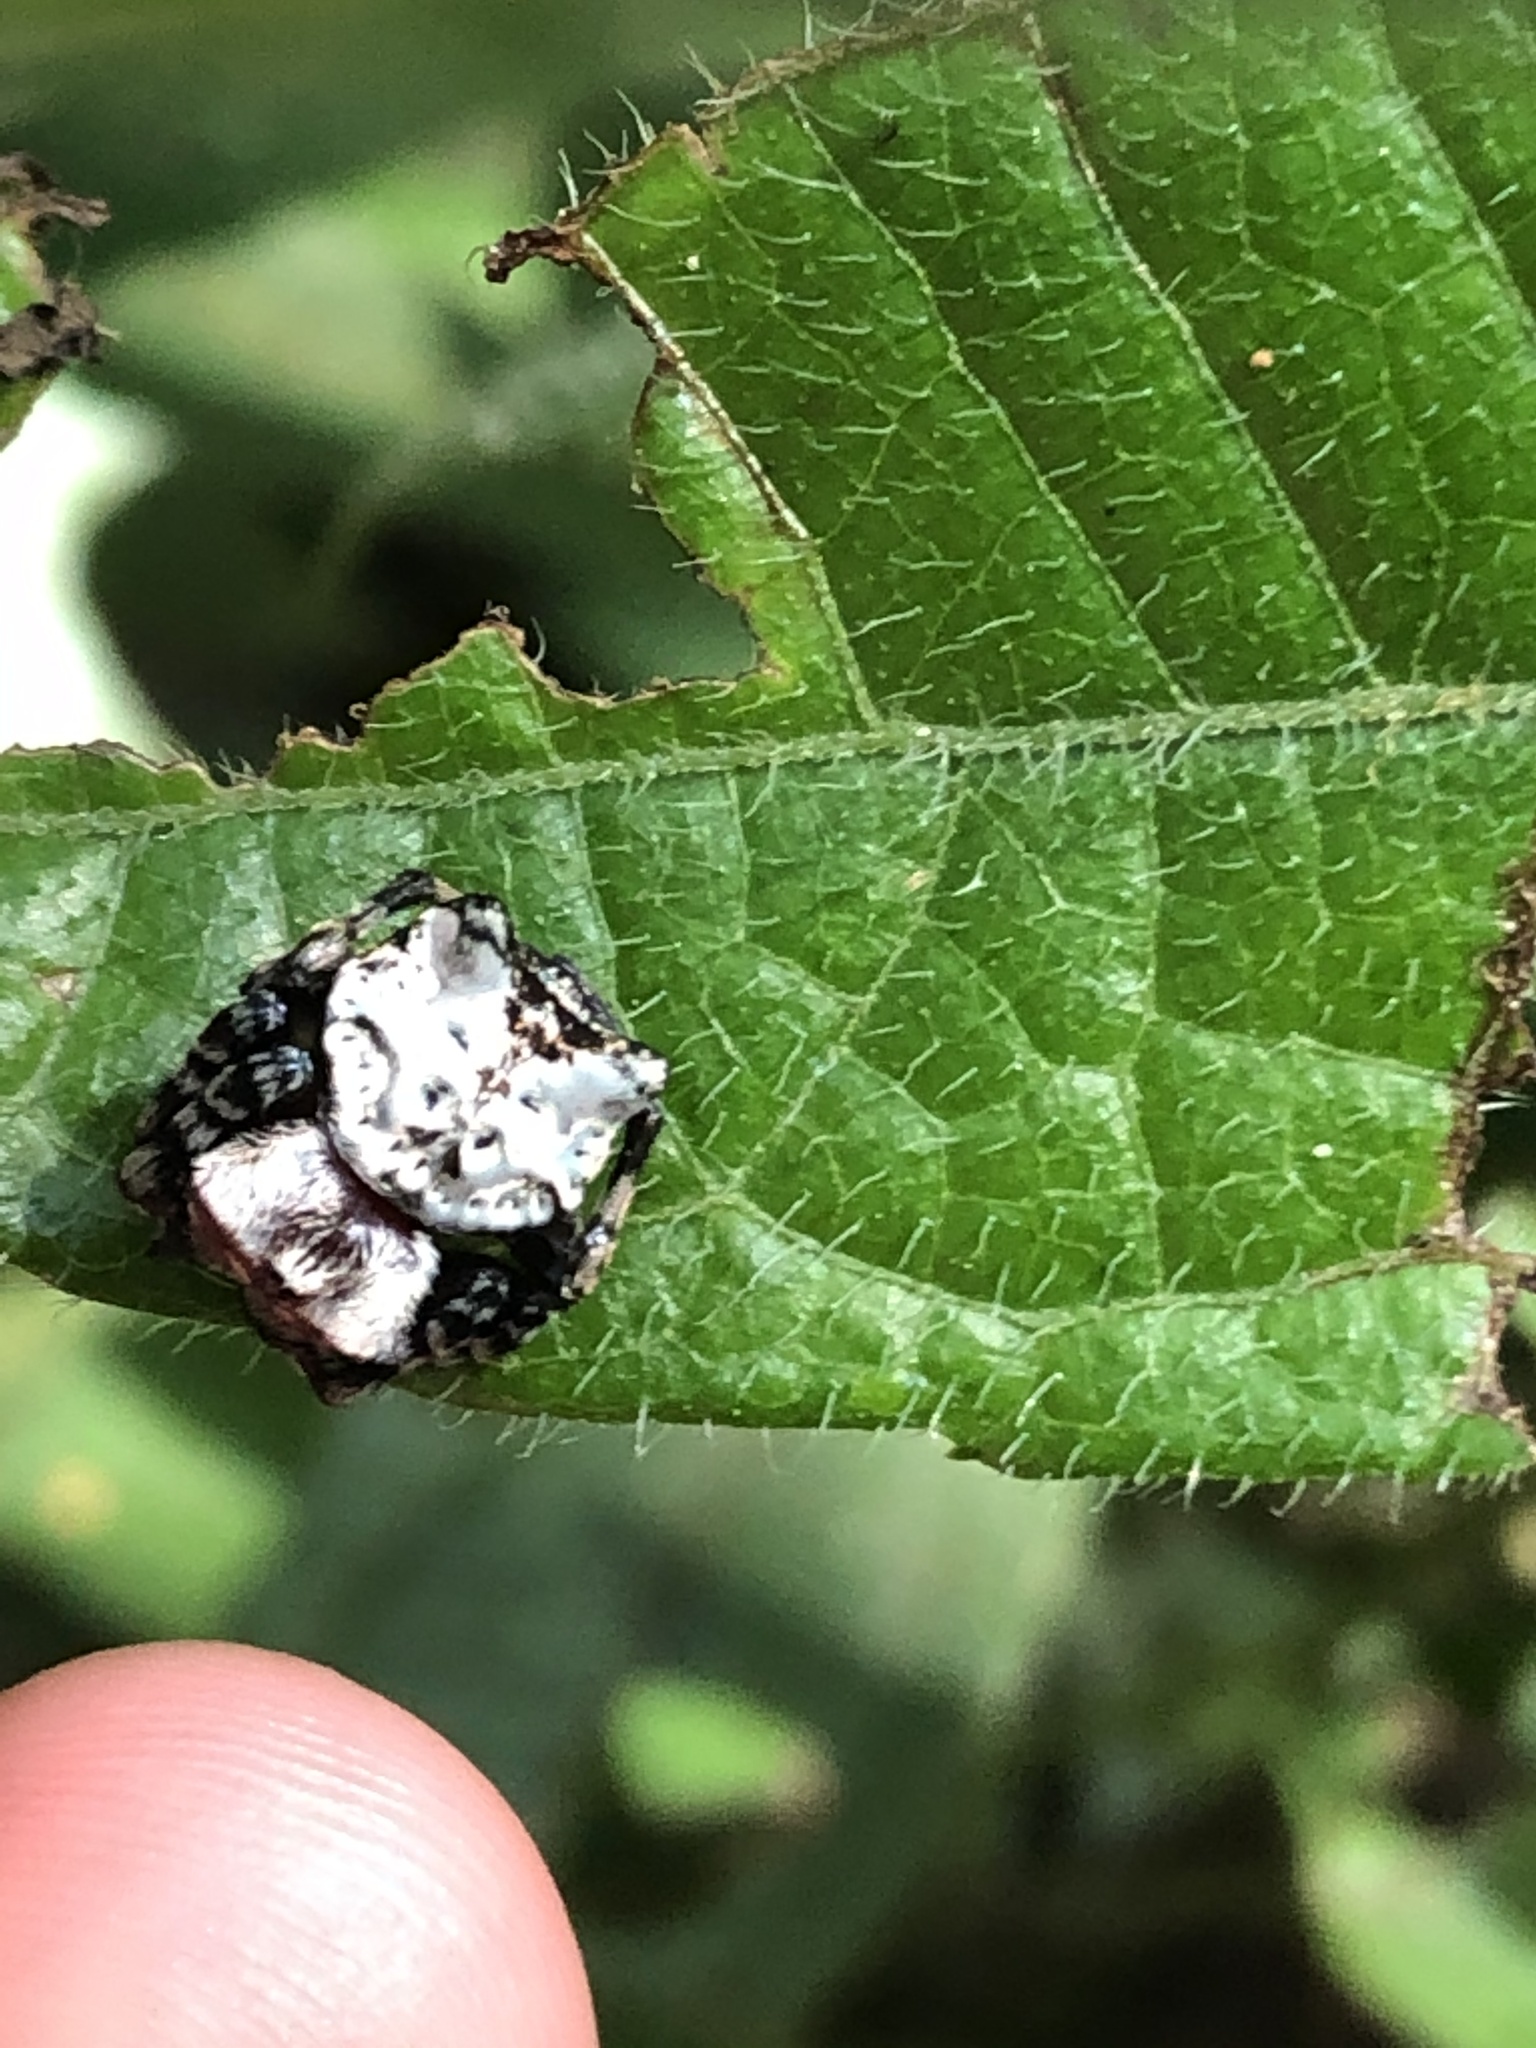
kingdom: Animalia
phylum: Arthropoda
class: Arachnida
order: Araneae
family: Araneidae
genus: Aspidolasius
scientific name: Aspidolasius branicki
